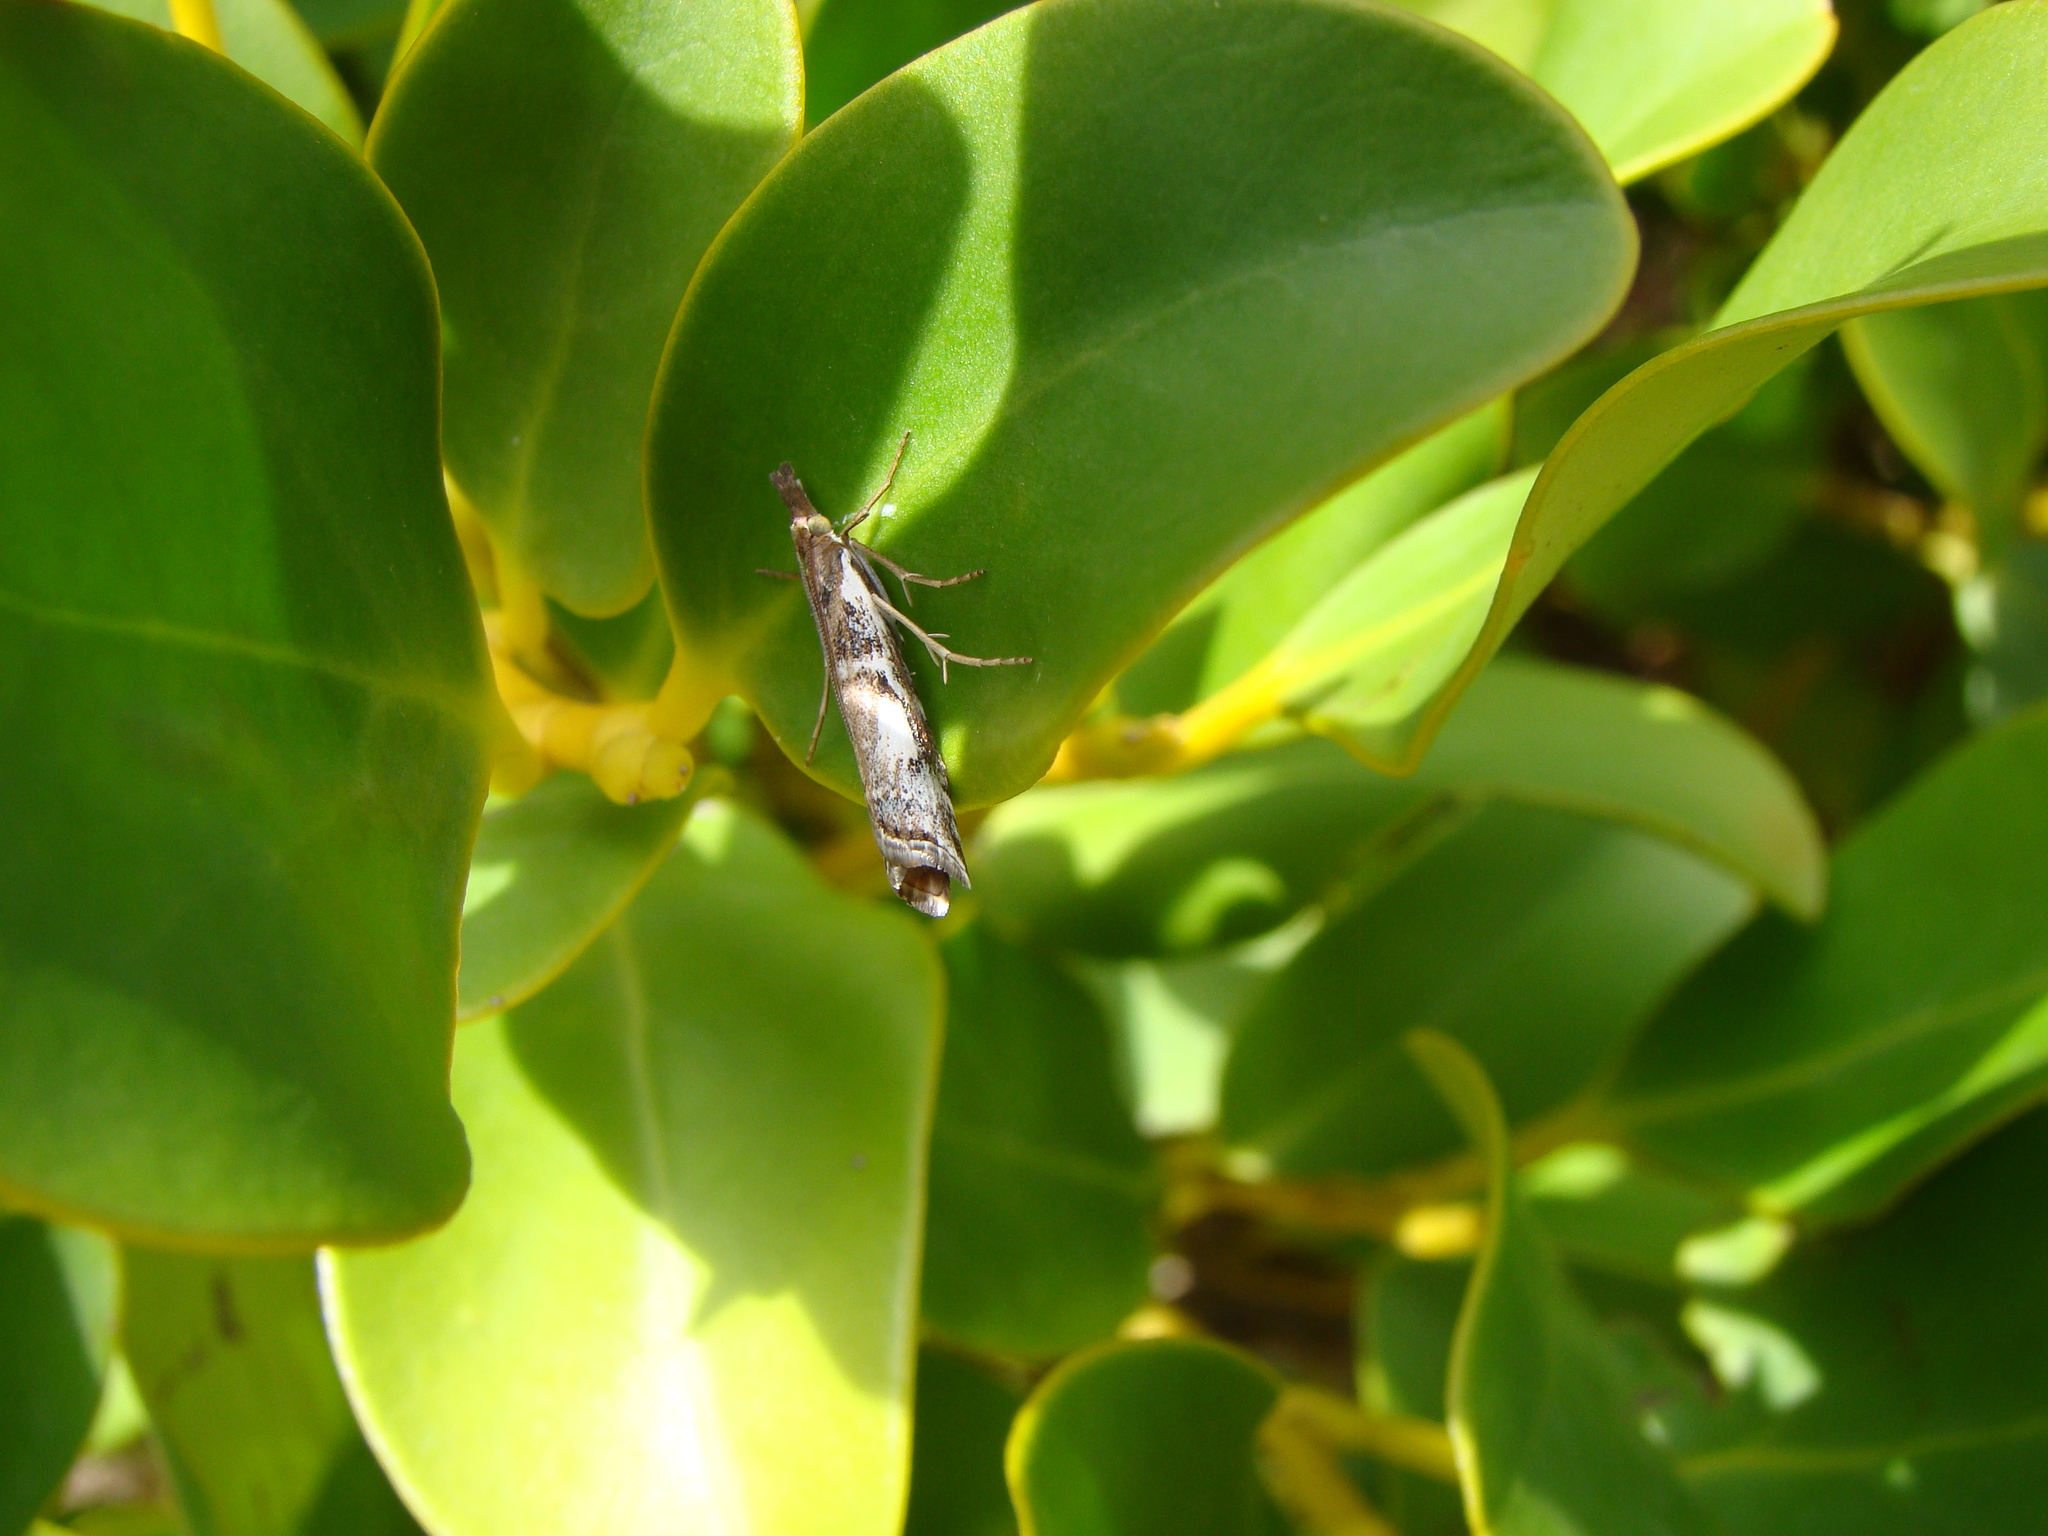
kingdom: Animalia
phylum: Arthropoda
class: Insecta
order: Lepidoptera
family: Crambidae
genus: Orocrambus
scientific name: Orocrambus vulgaris
